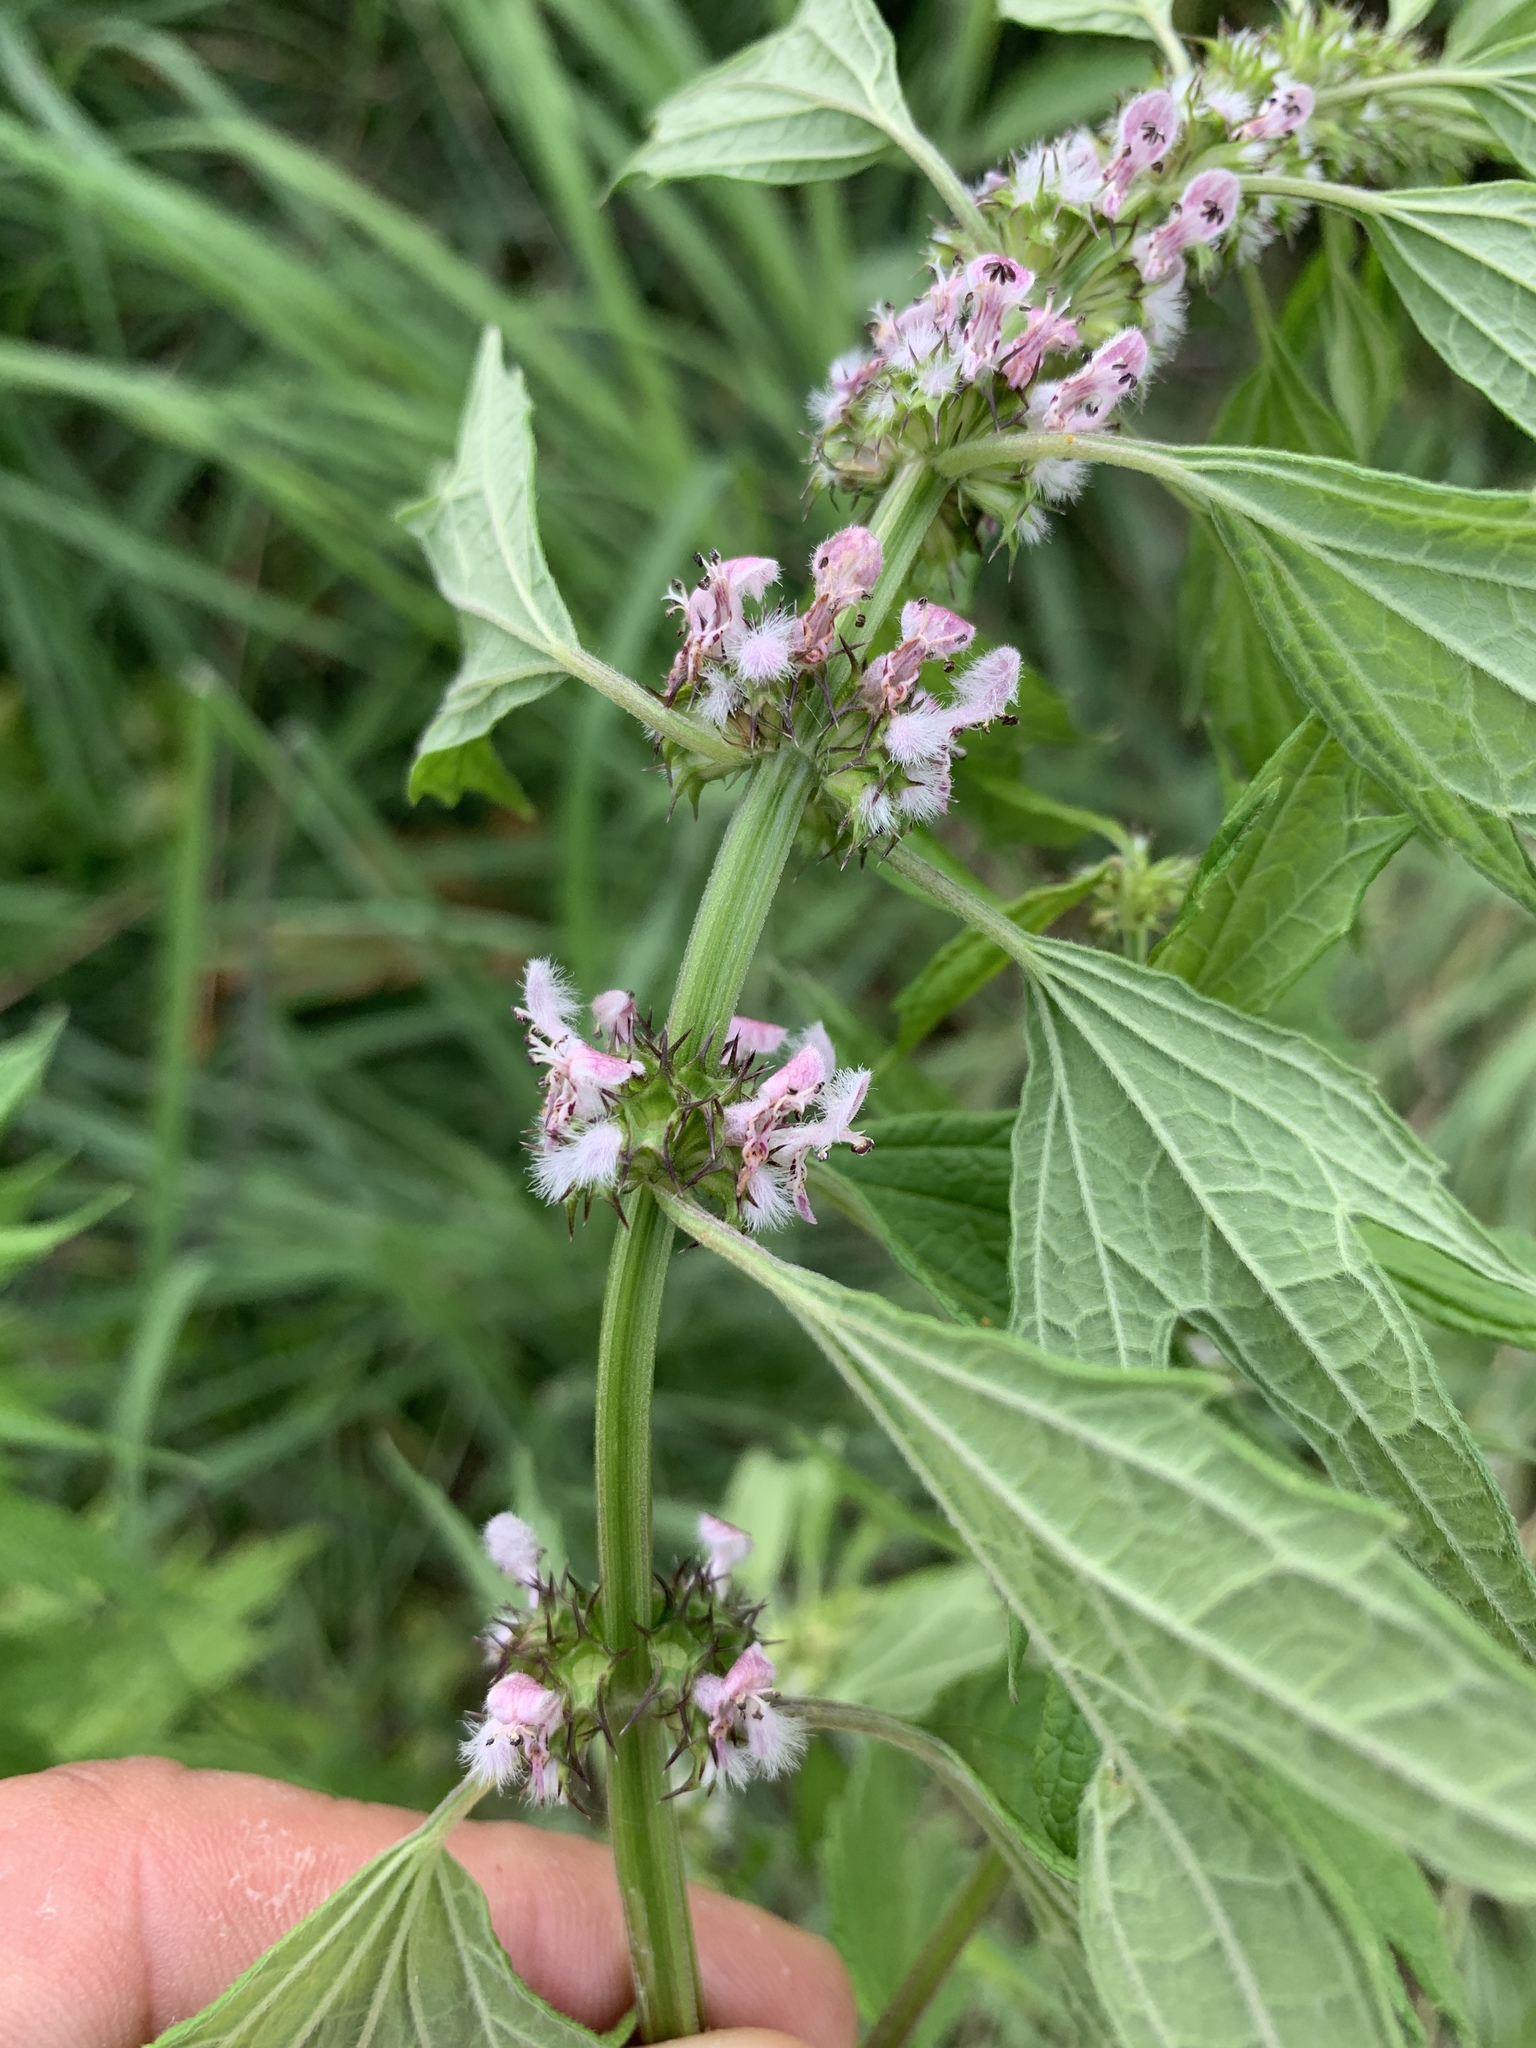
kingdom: Plantae
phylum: Tracheophyta
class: Magnoliopsida
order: Lamiales
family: Lamiaceae
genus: Leonurus
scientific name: Leonurus cardiaca
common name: Motherwort
